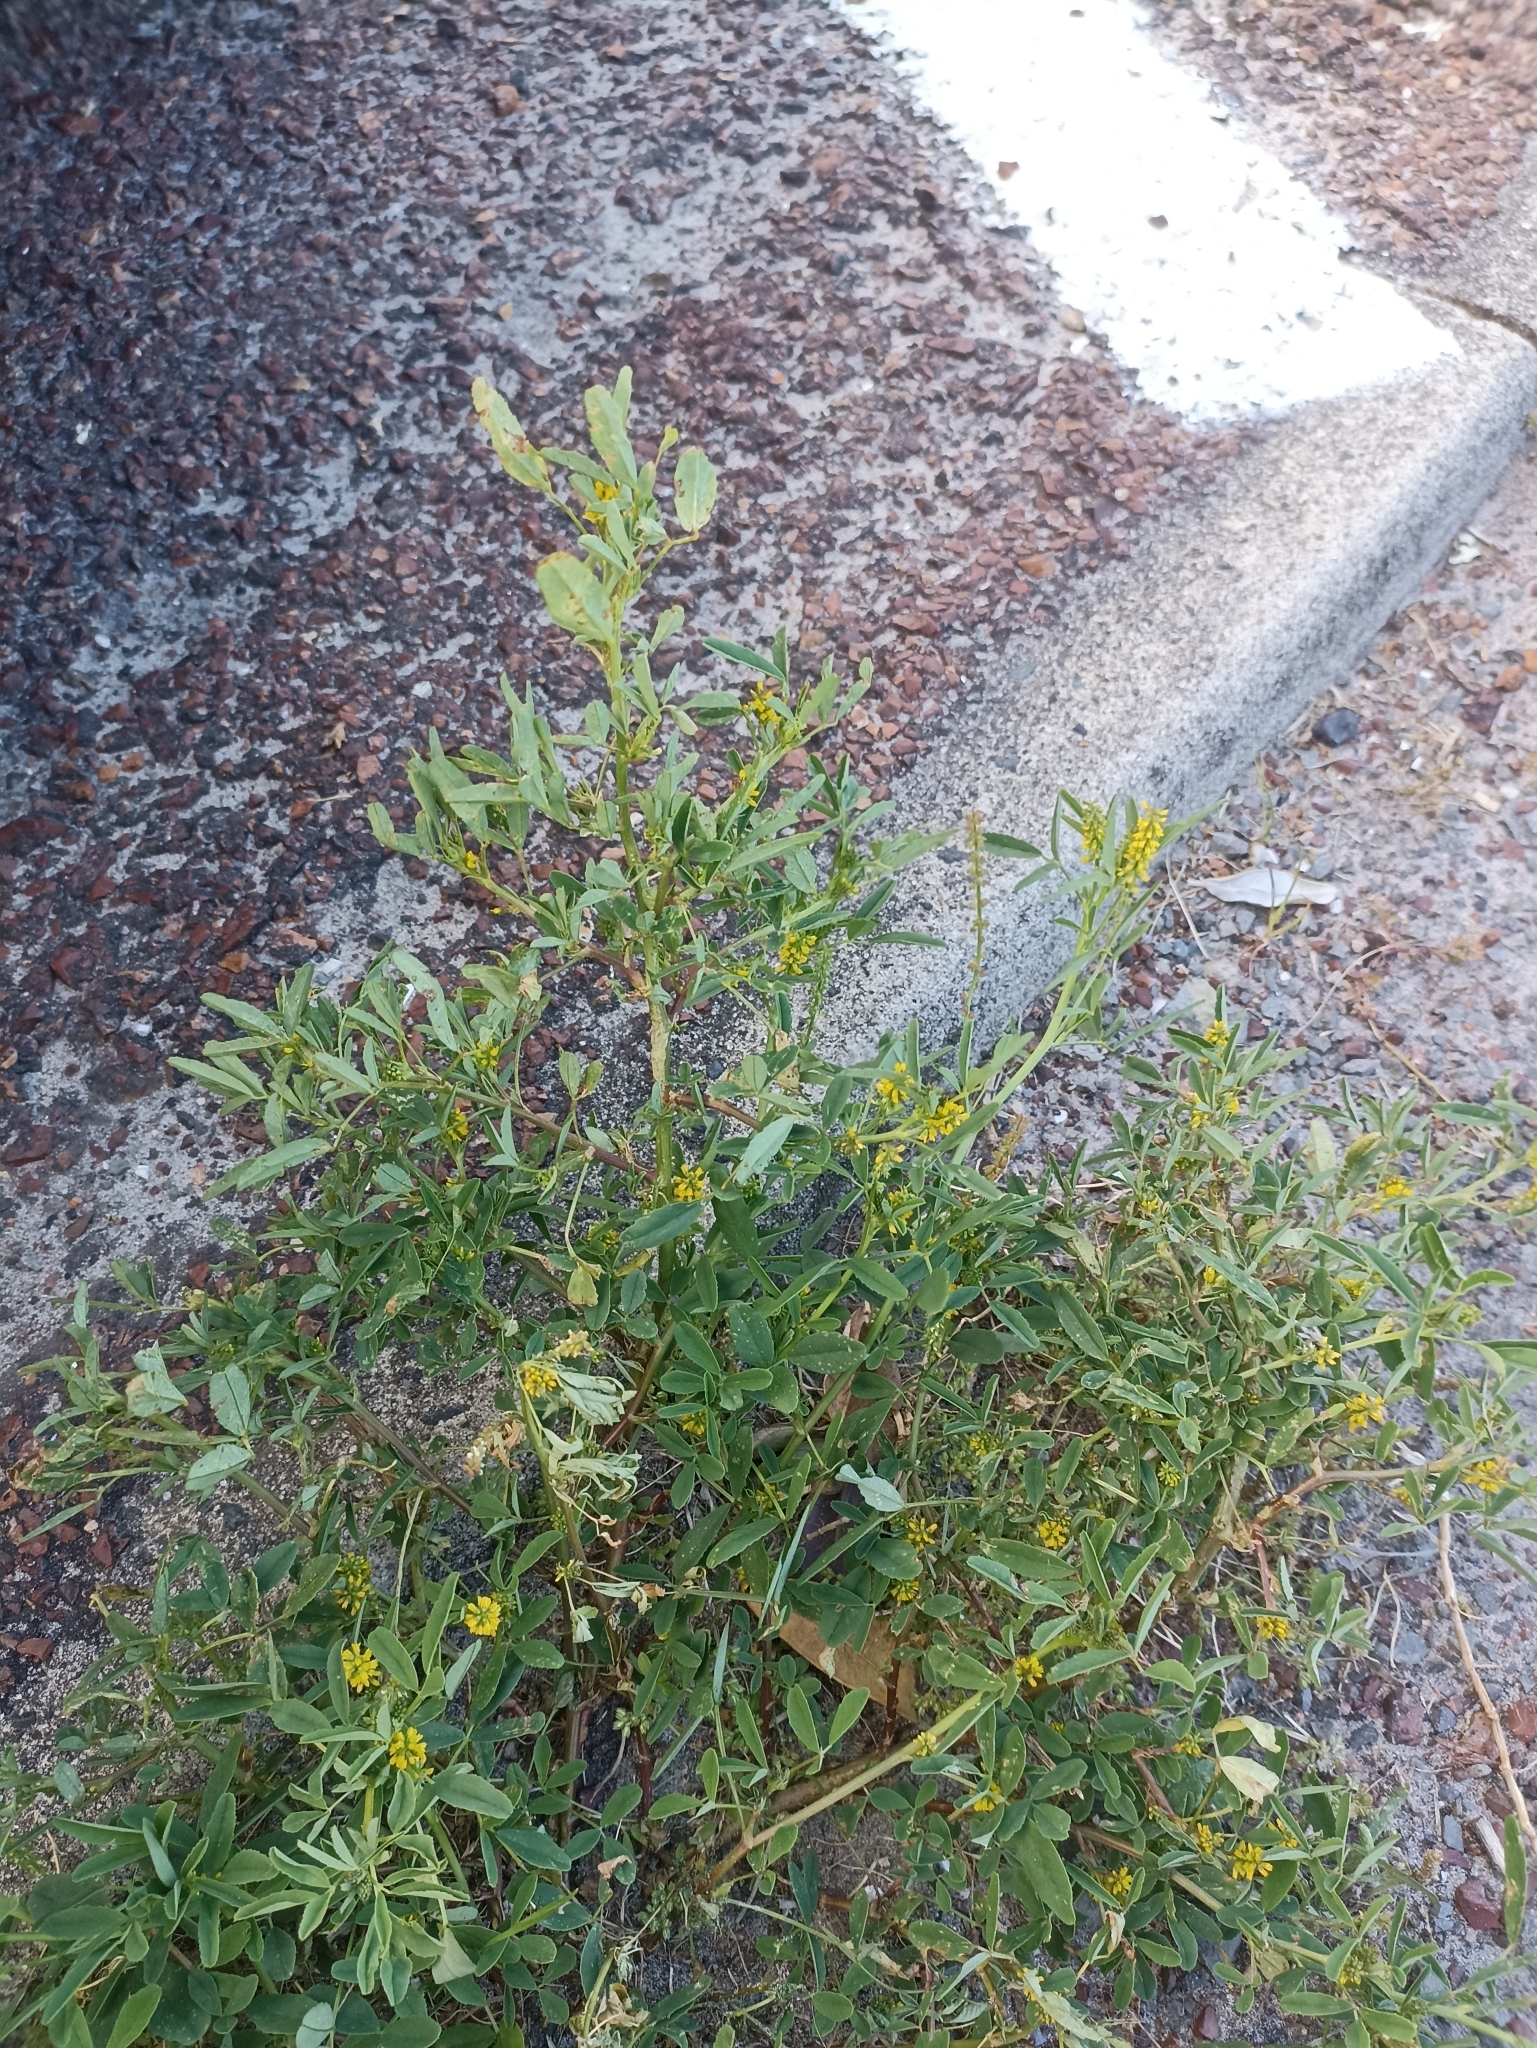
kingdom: Plantae
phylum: Tracheophyta
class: Magnoliopsida
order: Fabales
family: Fabaceae
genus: Melilotus
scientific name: Melilotus indicus
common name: Small melilot
